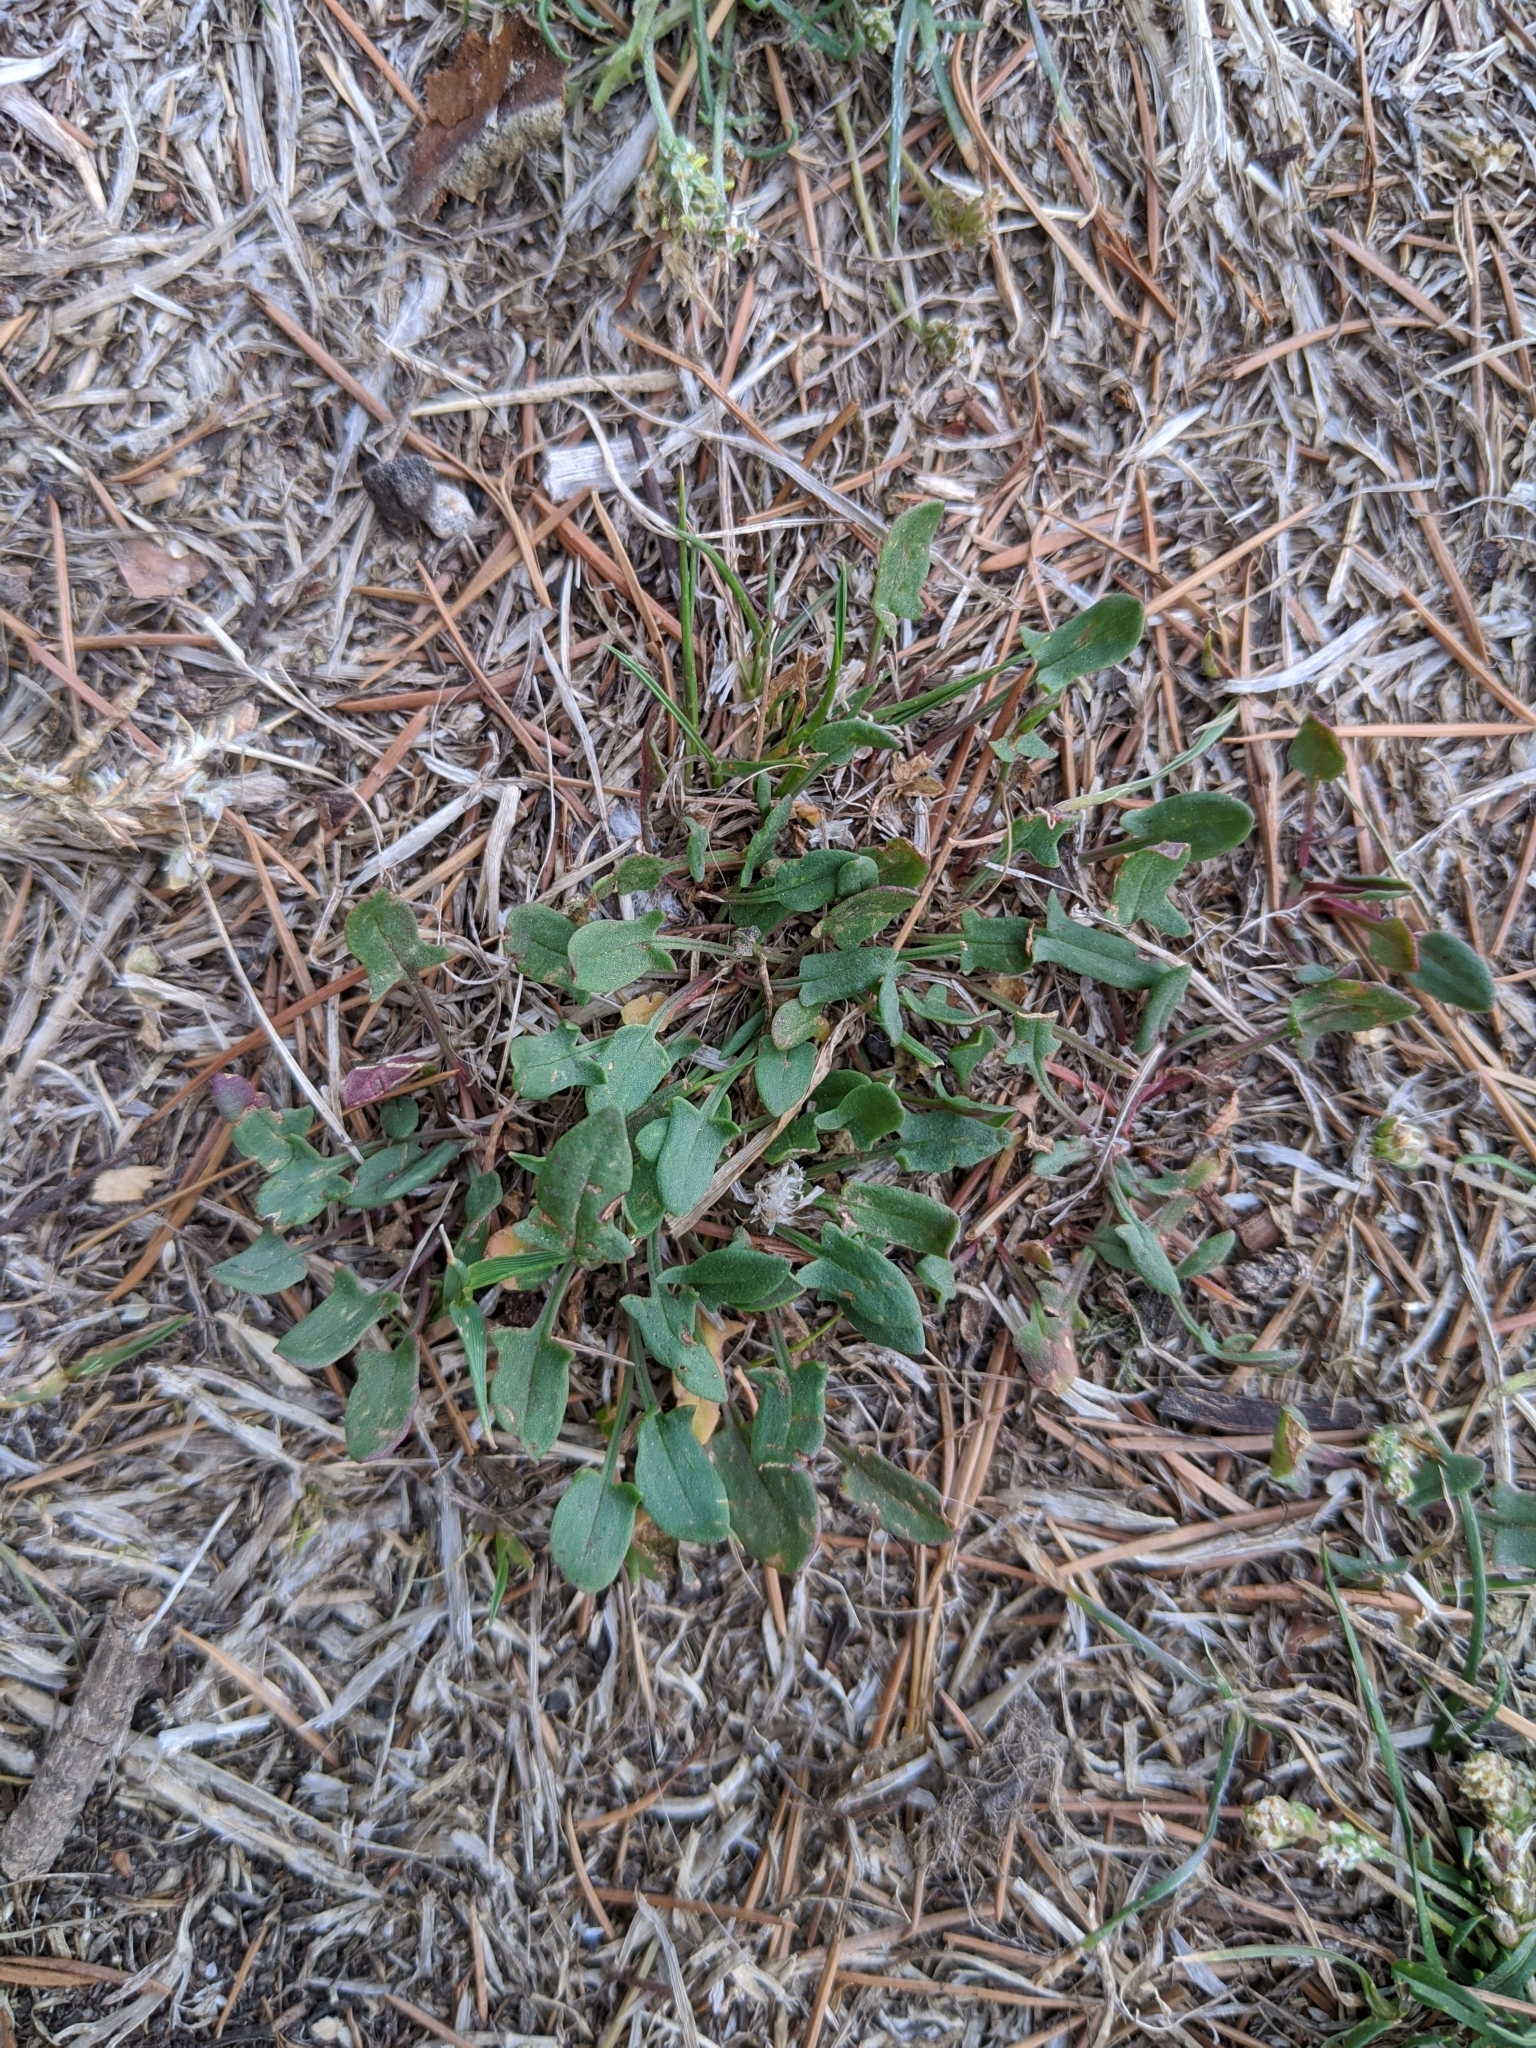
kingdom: Plantae
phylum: Tracheophyta
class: Magnoliopsida
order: Caryophyllales
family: Polygonaceae
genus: Rumex
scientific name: Rumex acetosella
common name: Common sheep sorrel
